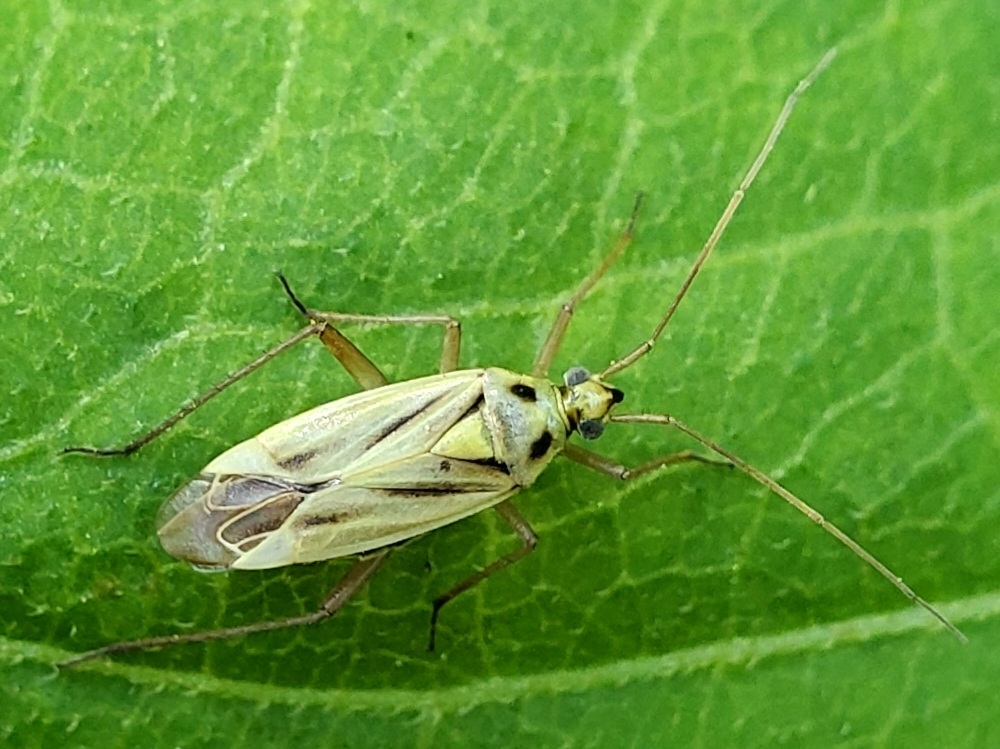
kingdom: Animalia
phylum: Arthropoda
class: Insecta
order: Hemiptera
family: Miridae
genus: Stenotus
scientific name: Stenotus binotatus
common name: Plant bug
